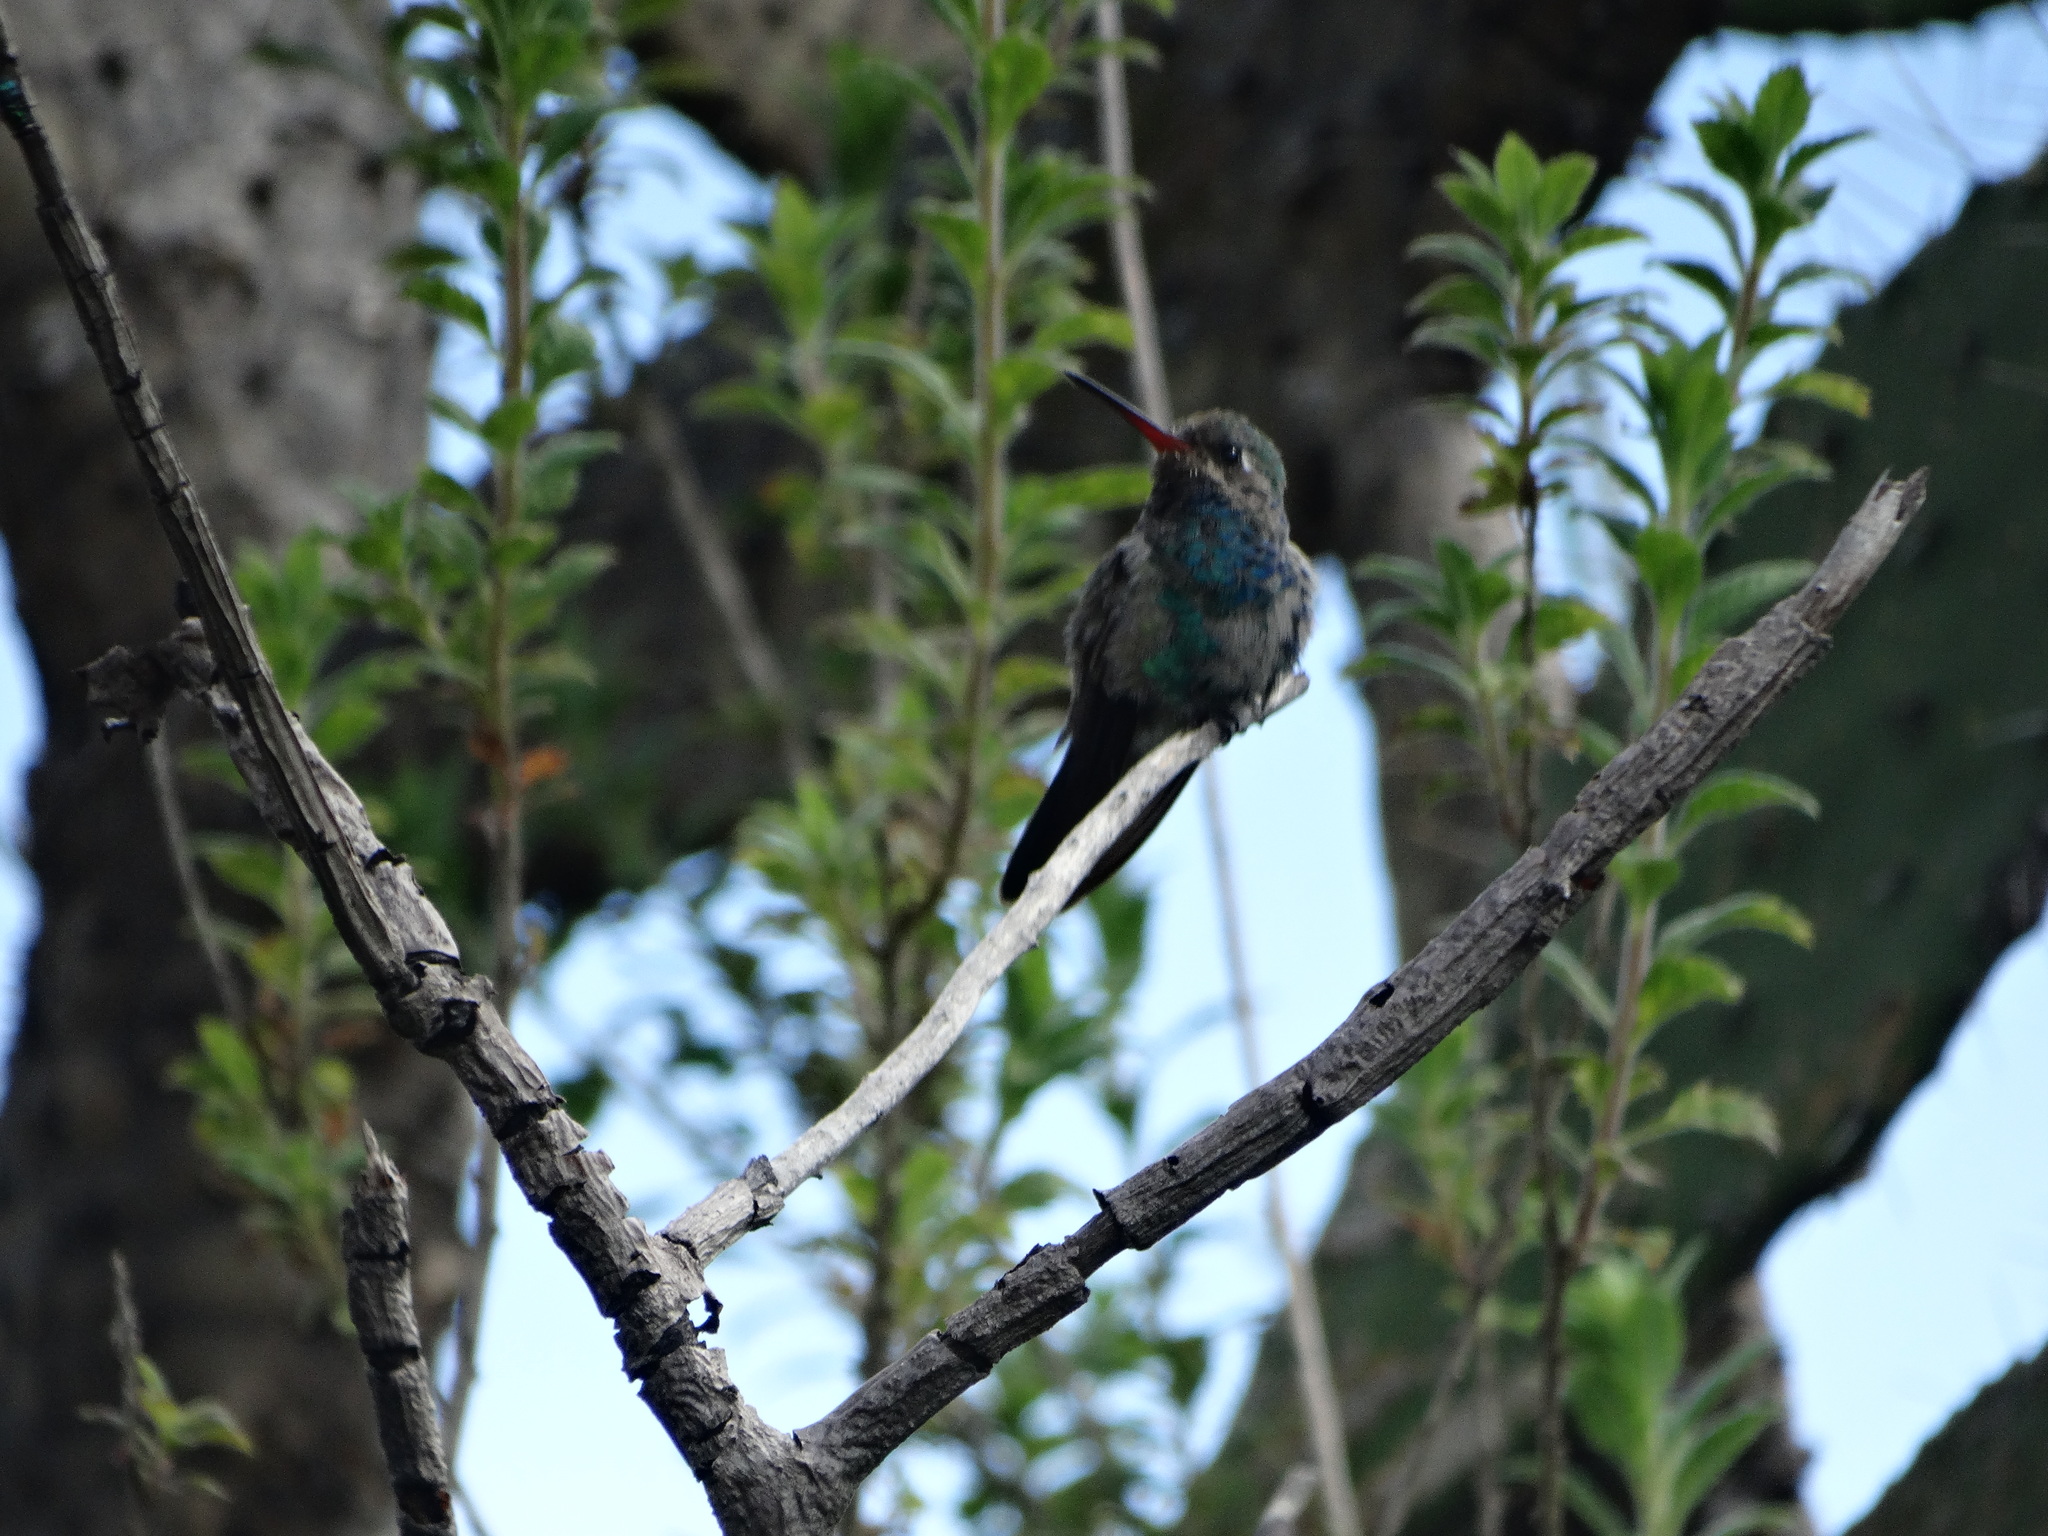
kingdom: Animalia
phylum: Chordata
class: Aves
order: Apodiformes
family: Trochilidae
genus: Cynanthus
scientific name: Cynanthus latirostris
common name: Broad-billed hummingbird
